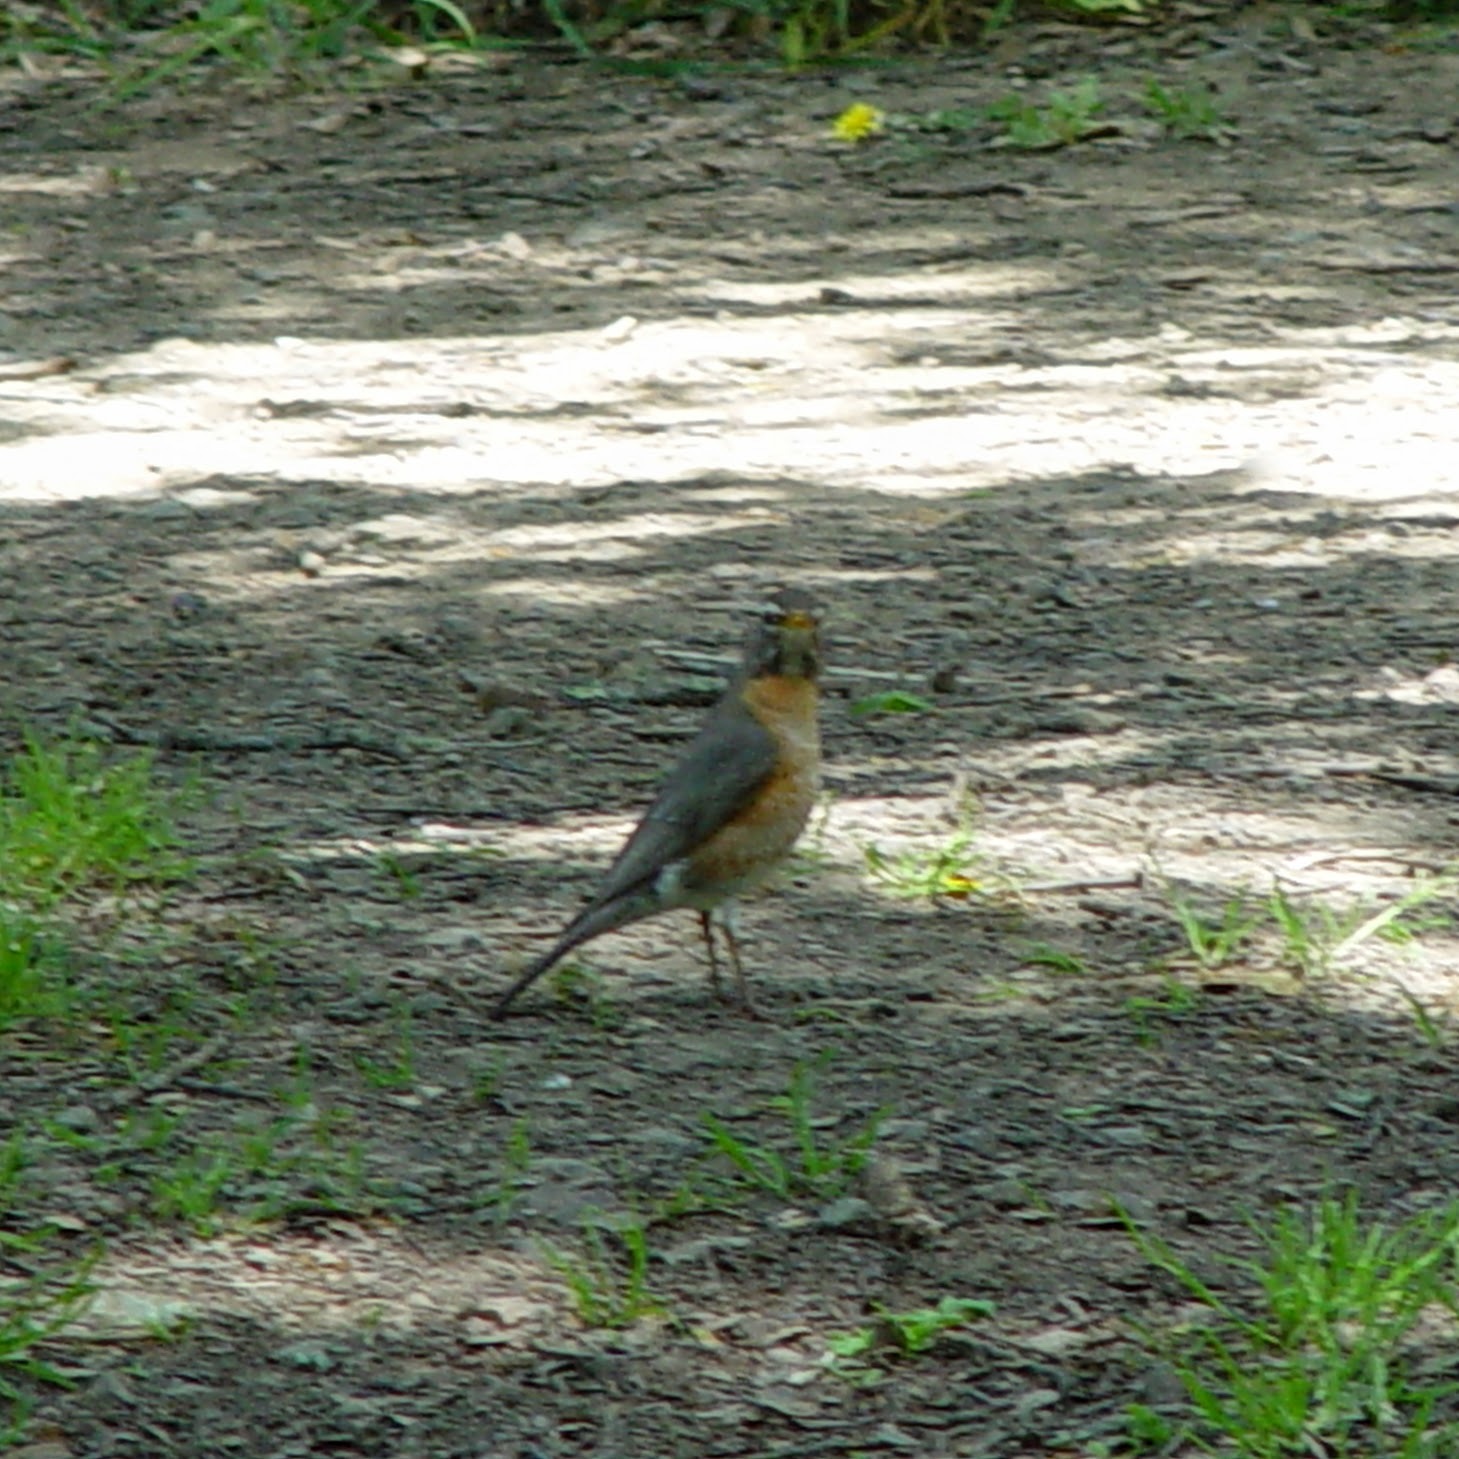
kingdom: Animalia
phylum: Chordata
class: Aves
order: Passeriformes
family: Turdidae
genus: Turdus
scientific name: Turdus migratorius
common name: American robin
